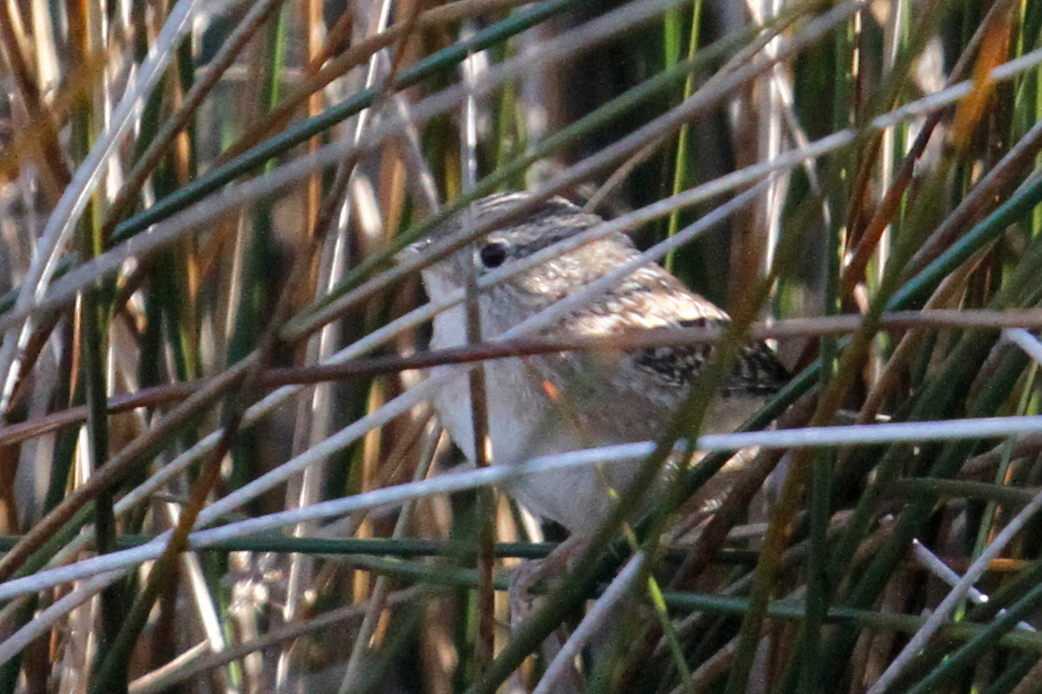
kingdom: Animalia
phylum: Chordata
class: Aves
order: Passeriformes
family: Troglodytidae
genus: Cistothorus
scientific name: Cistothorus platensis
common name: Sedge wren
